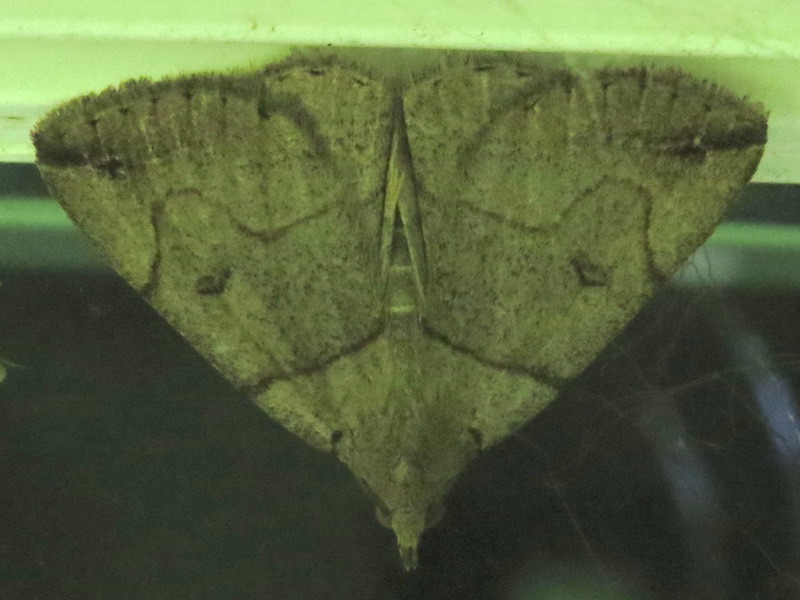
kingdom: Animalia
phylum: Arthropoda
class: Insecta
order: Lepidoptera
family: Erebidae
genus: Zanclognatha
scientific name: Zanclognatha laevigata
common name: Variable fan-foot
